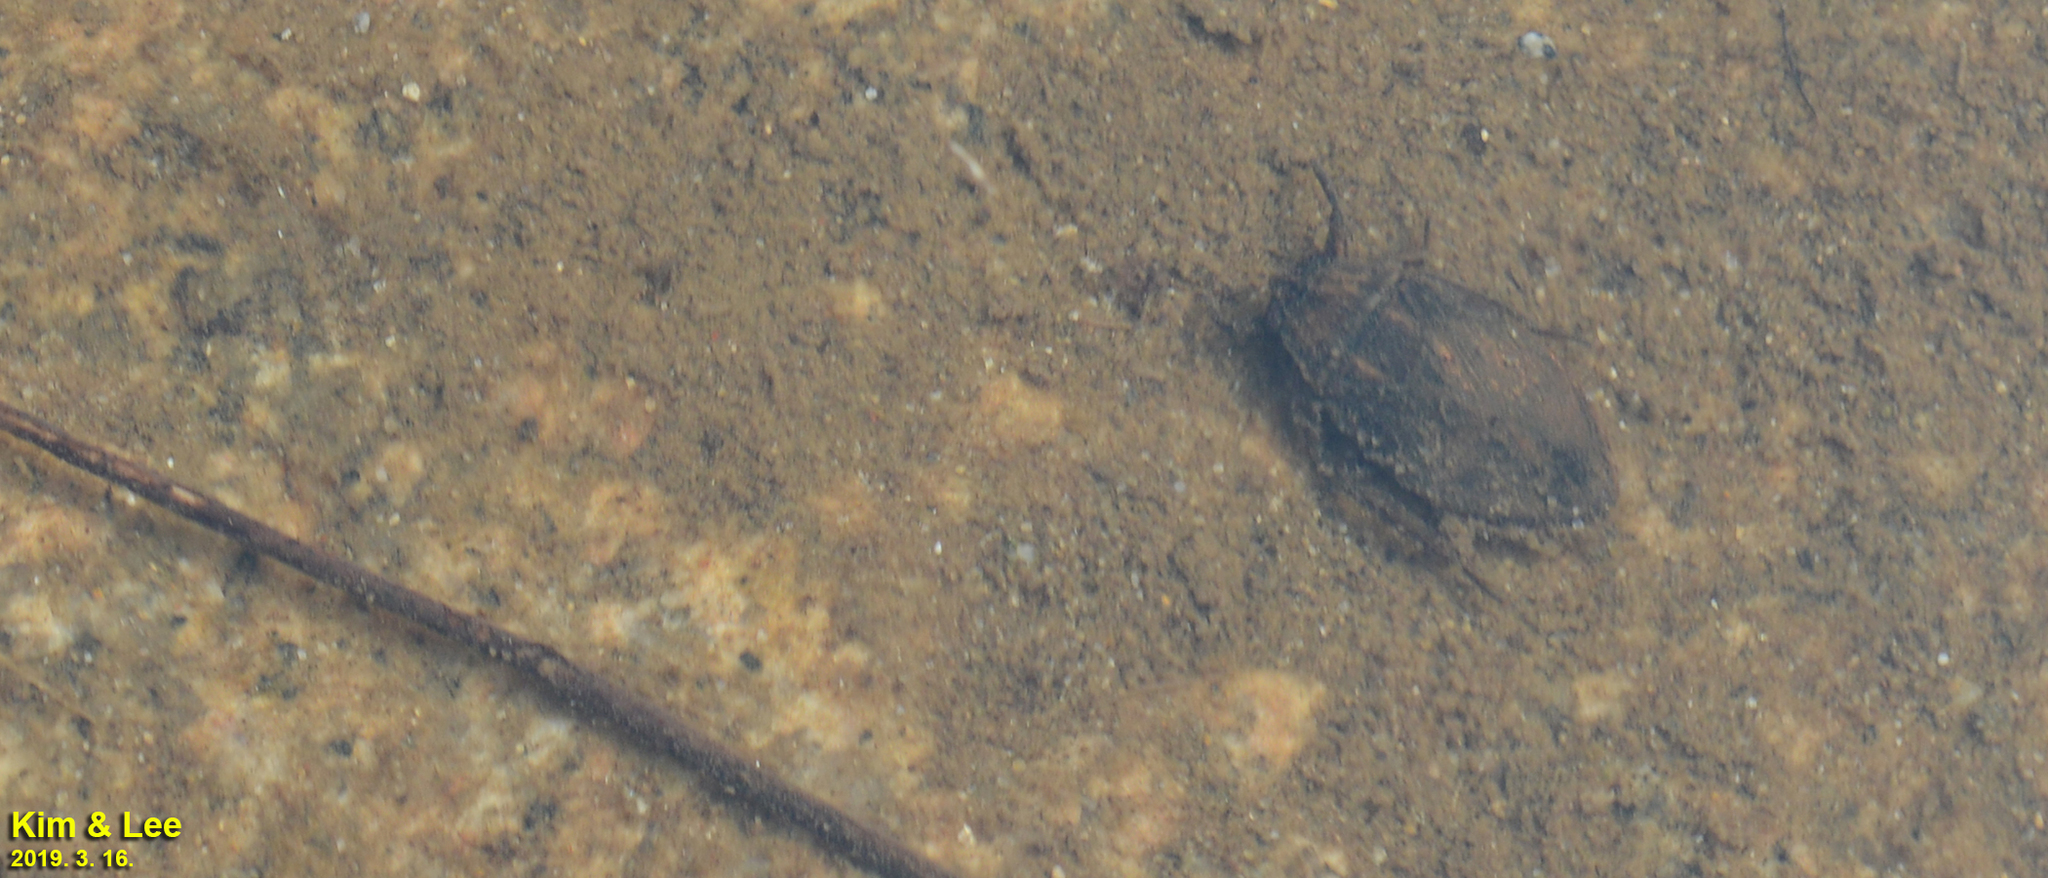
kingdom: Animalia
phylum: Arthropoda
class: Insecta
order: Hemiptera
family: Belostomatidae
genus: Appasus
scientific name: Appasus japonicus
